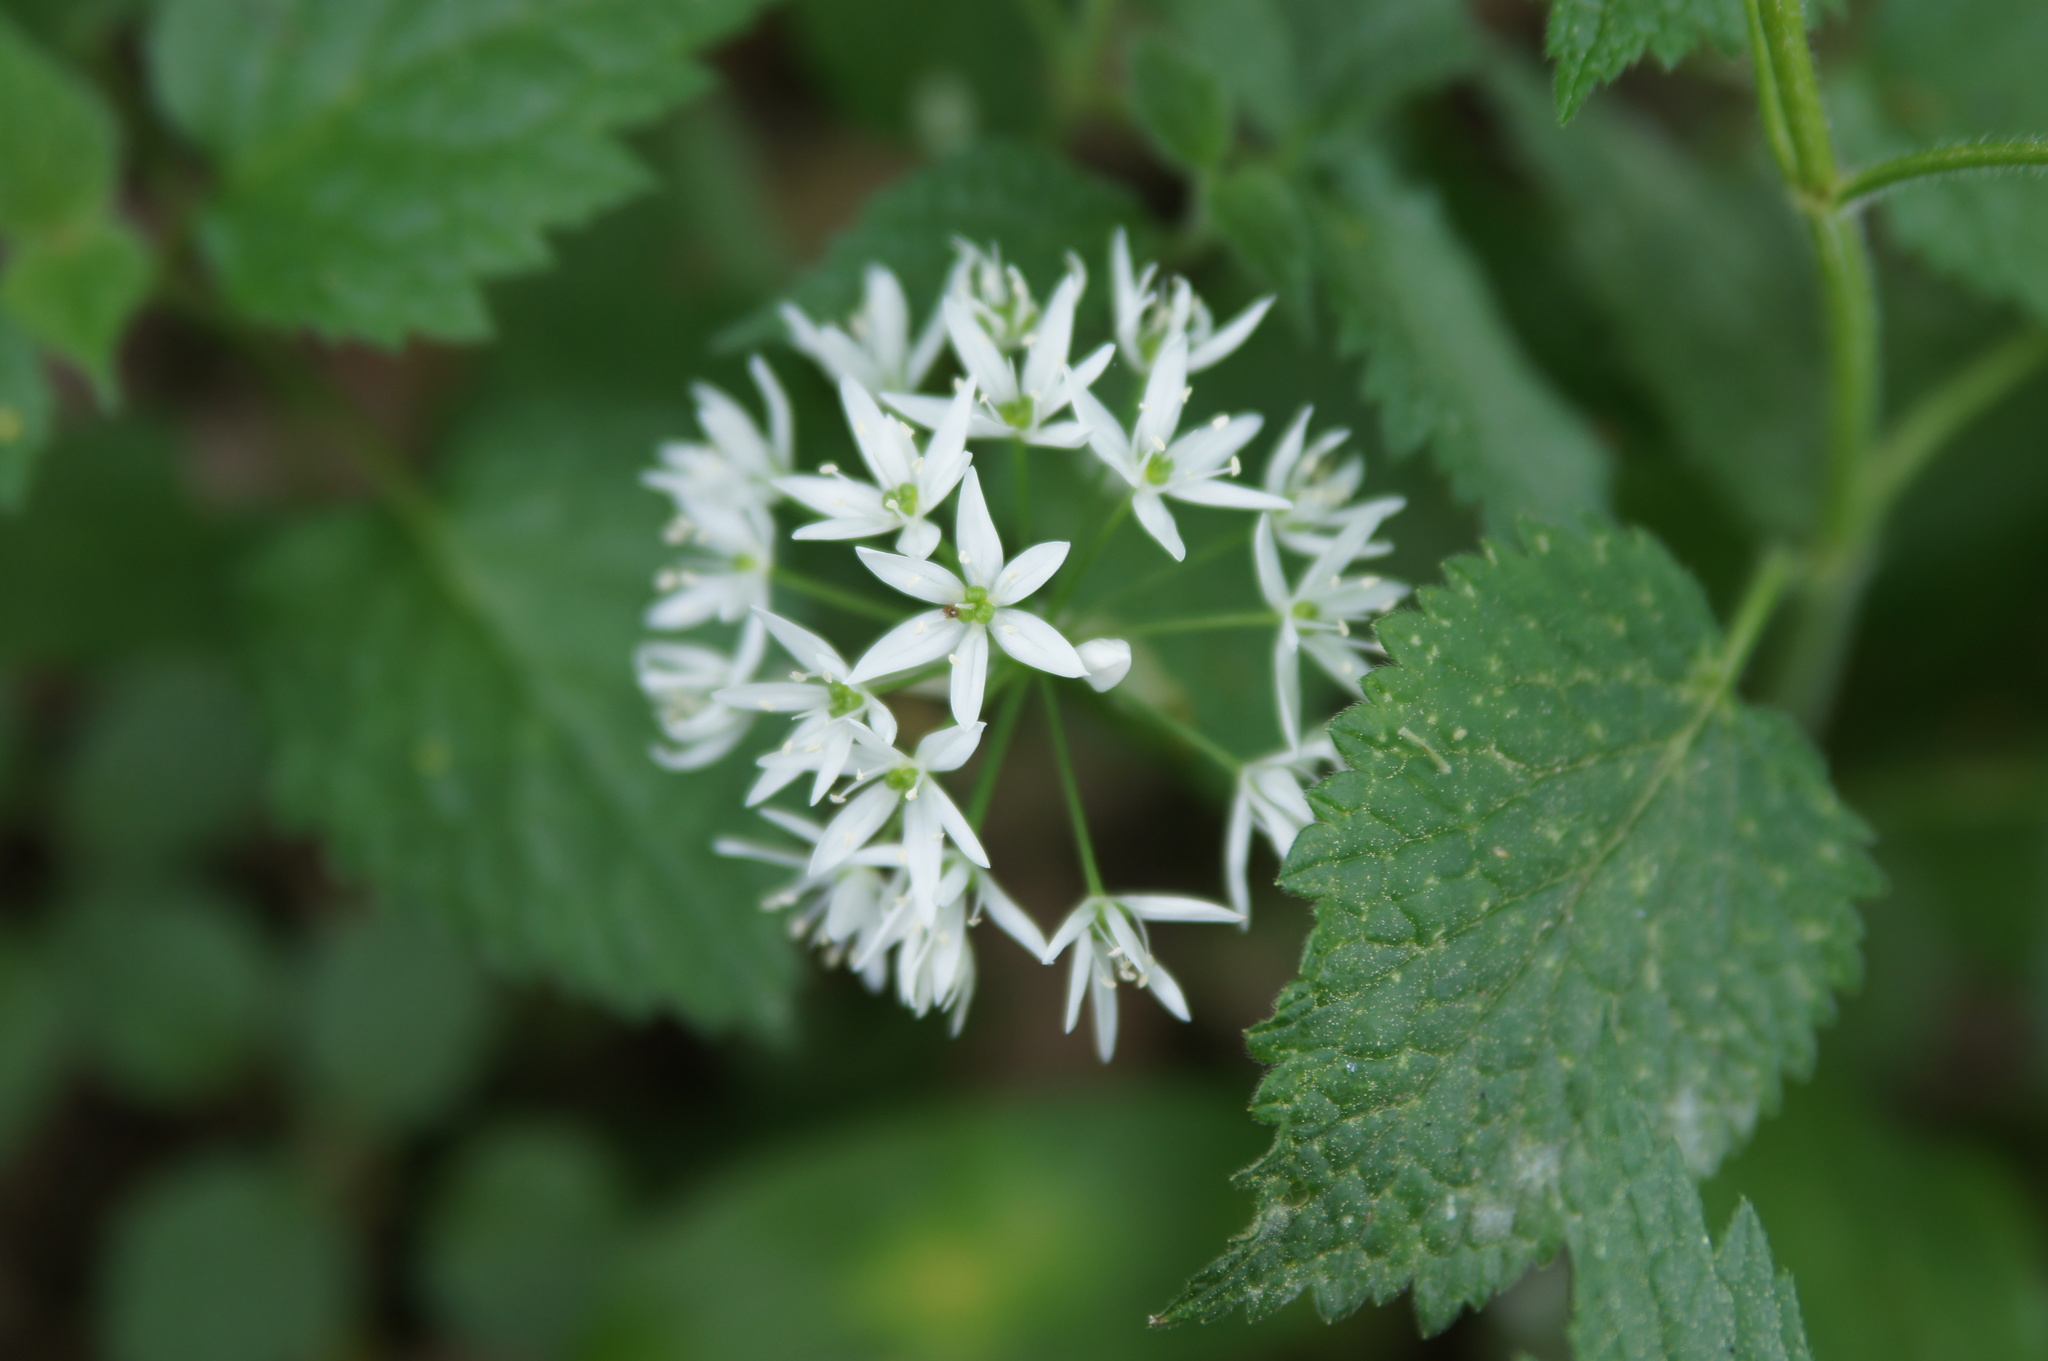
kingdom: Plantae
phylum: Tracheophyta
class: Liliopsida
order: Asparagales
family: Amaryllidaceae
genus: Allium
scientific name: Allium ursinum
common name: Ramsons
